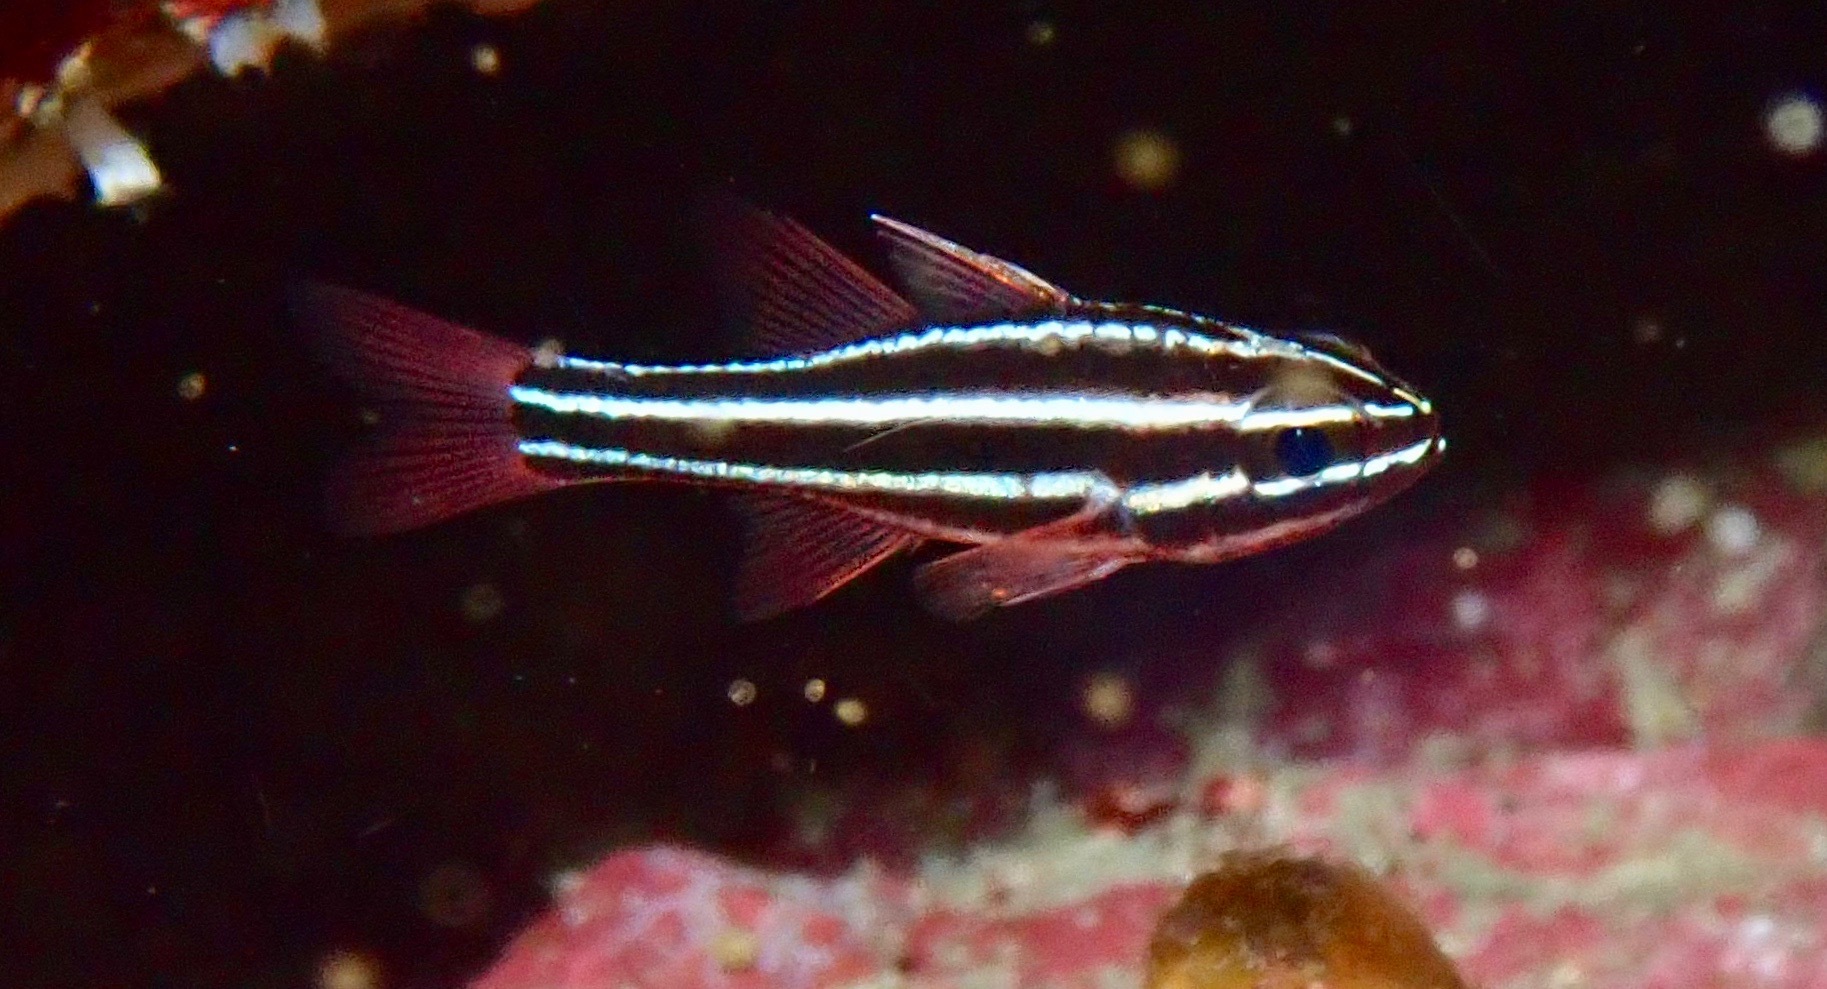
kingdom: Animalia
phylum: Chordata
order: Perciformes
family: Apogonidae
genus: Ostorhinchus
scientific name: Ostorhinchus nigrofasciatus
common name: Blackstripe cardinalfish
